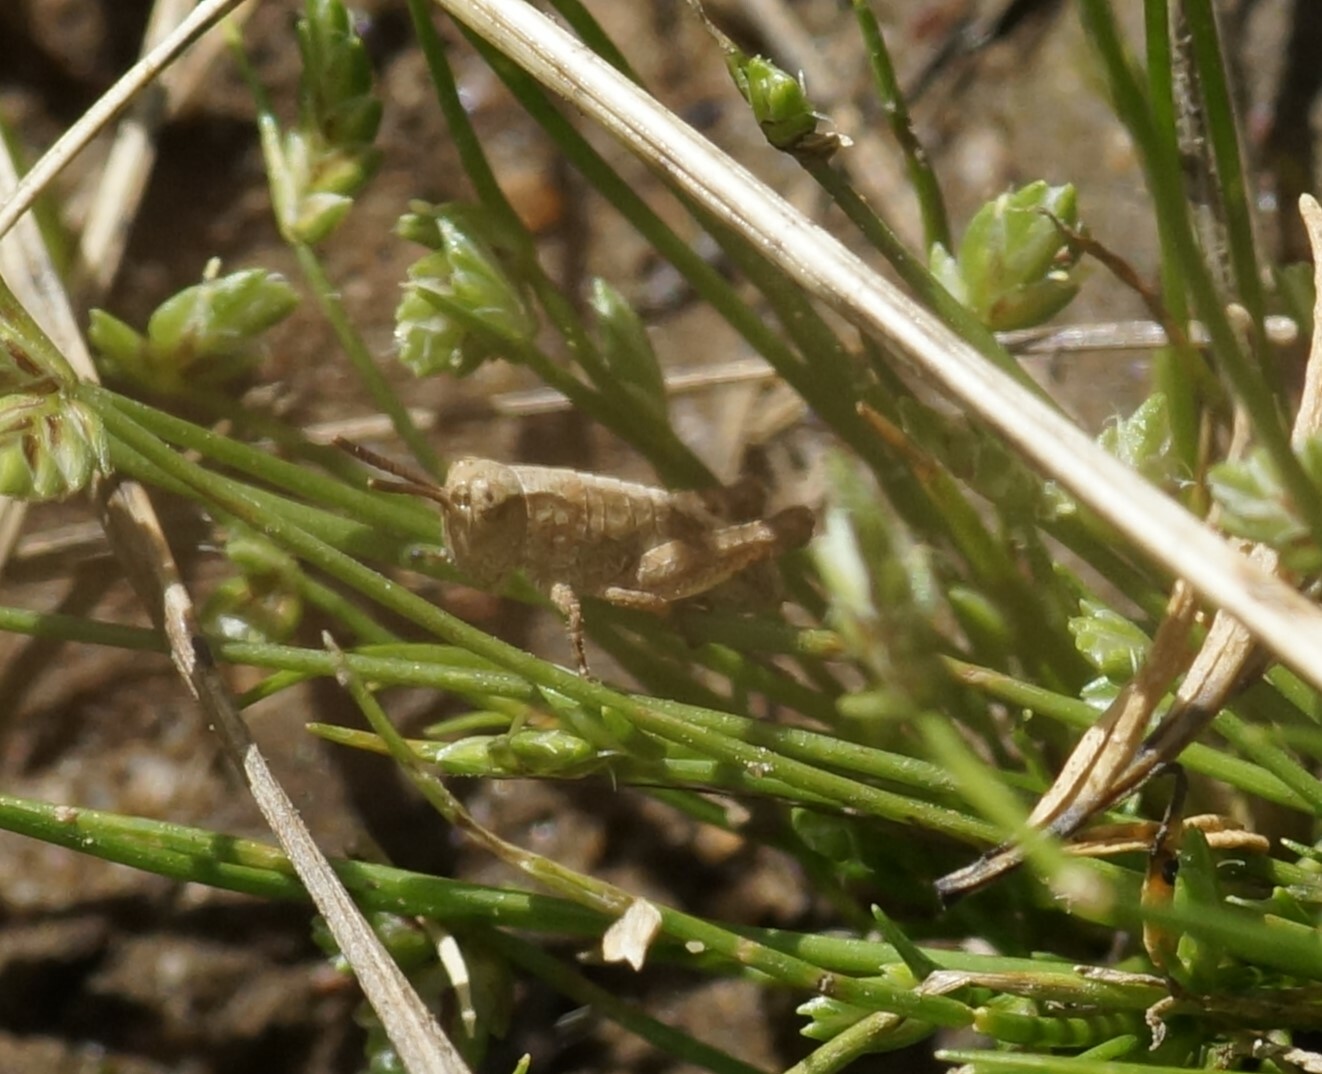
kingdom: Animalia
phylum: Arthropoda
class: Insecta
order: Orthoptera
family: Acrididae
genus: Phaulacridium
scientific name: Phaulacridium vittatum
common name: Wingless grasshopper
